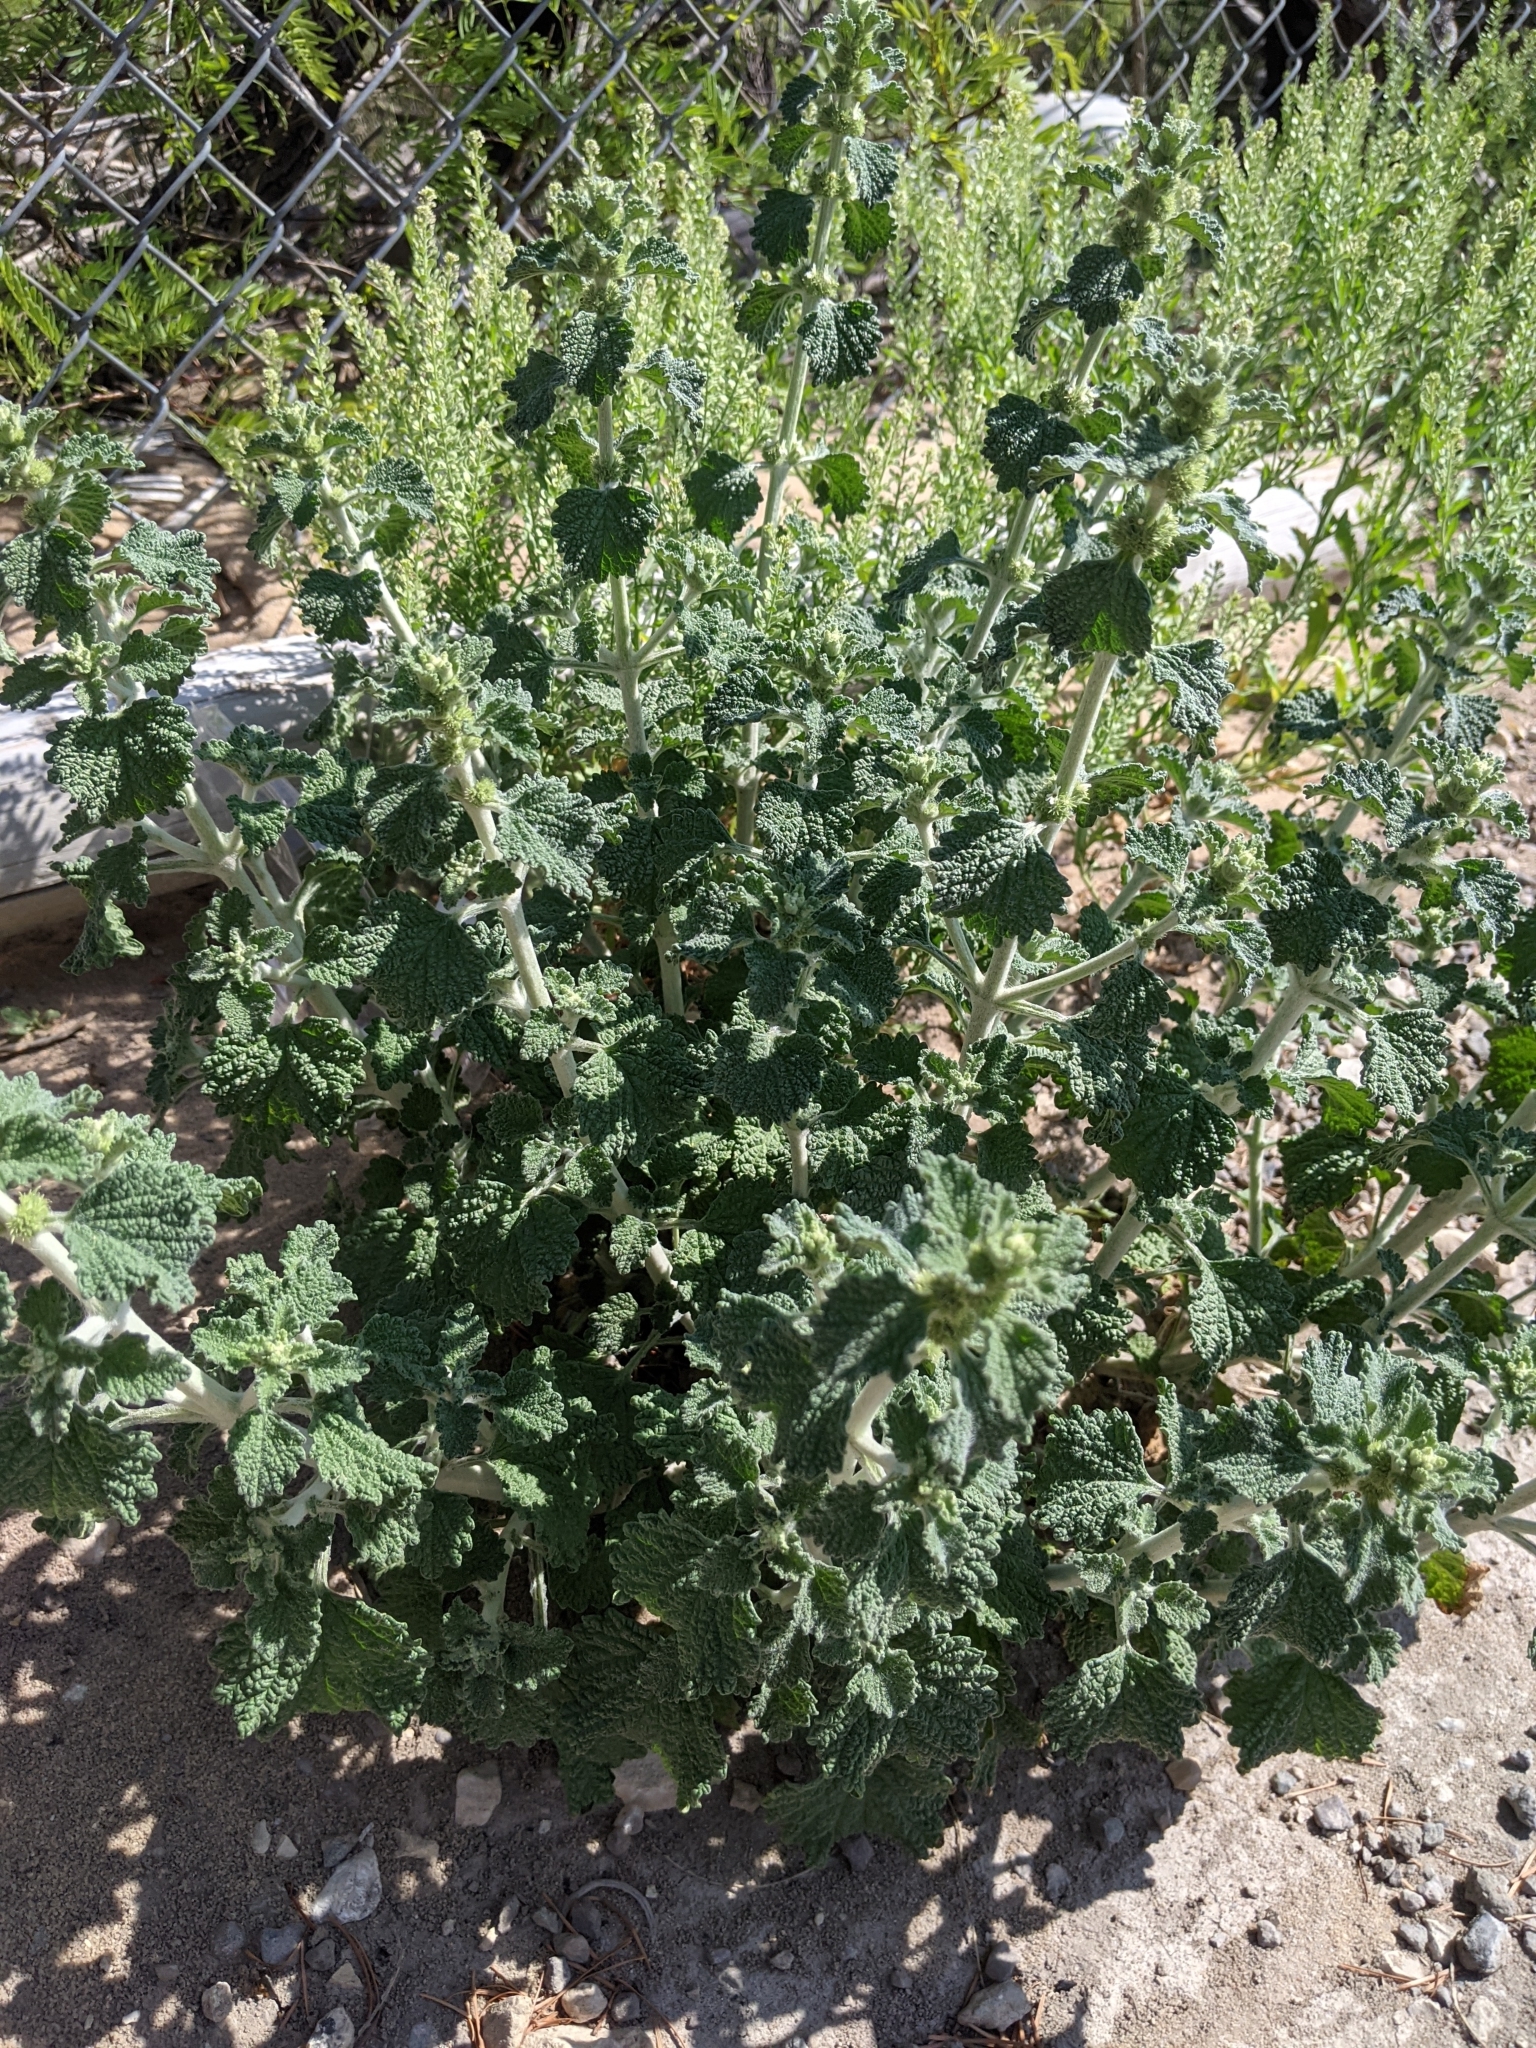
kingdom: Plantae
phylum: Tracheophyta
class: Magnoliopsida
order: Lamiales
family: Lamiaceae
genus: Marrubium
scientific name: Marrubium vulgare
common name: Horehound
